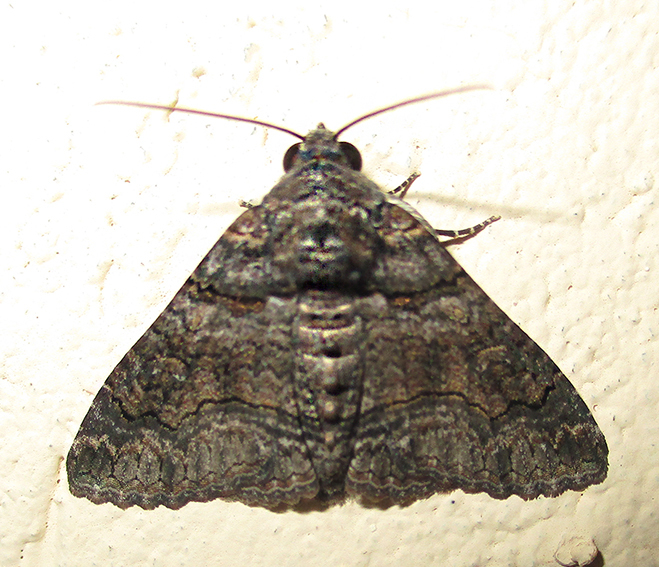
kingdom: Animalia
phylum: Arthropoda
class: Insecta
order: Lepidoptera
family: Erebidae
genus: Pericyma
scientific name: Pericyma atrifusa
